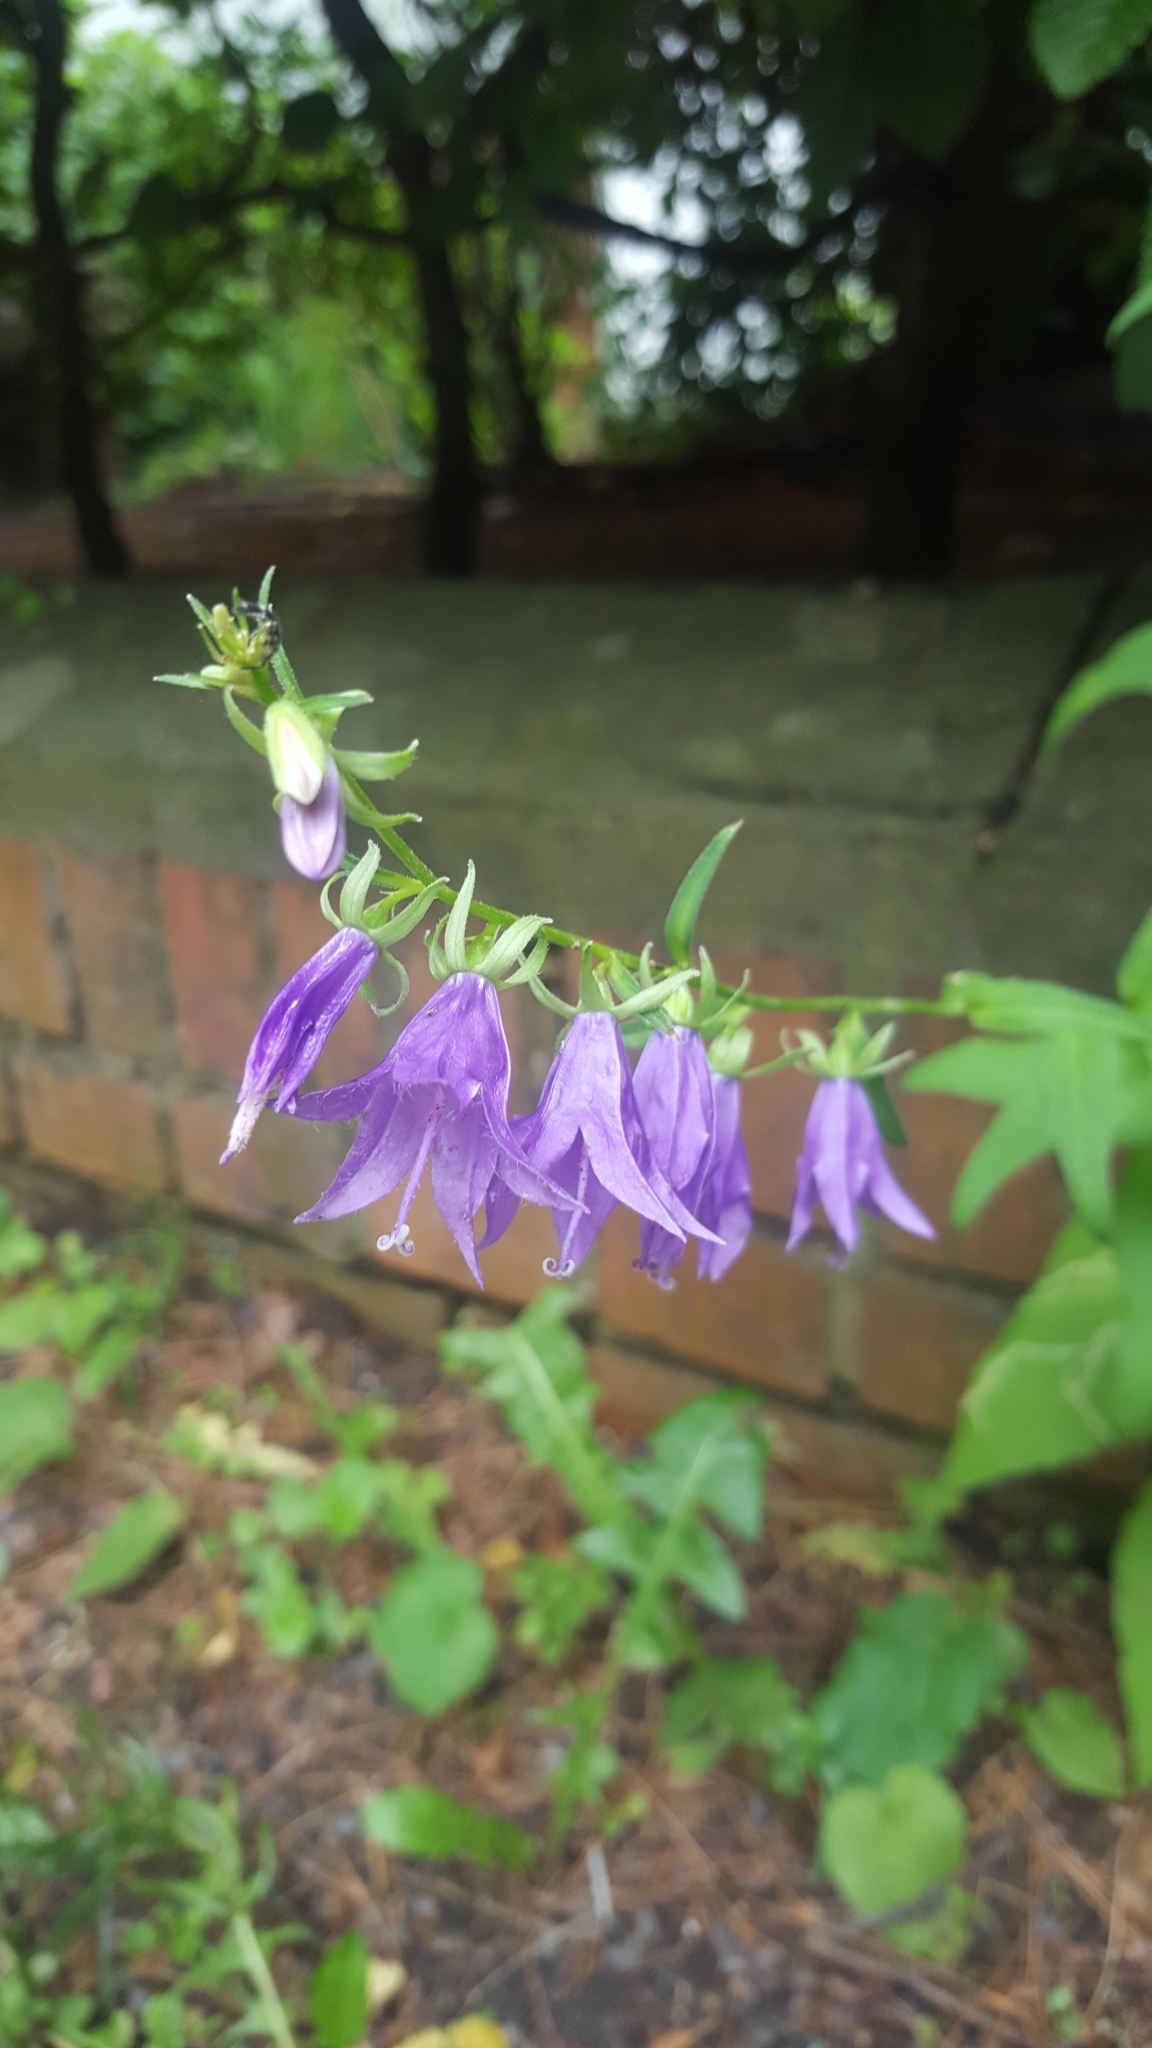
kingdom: Plantae
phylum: Tracheophyta
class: Magnoliopsida
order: Asterales
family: Campanulaceae
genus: Campanula
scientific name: Campanula rapunculoides
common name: Creeping bellflower
